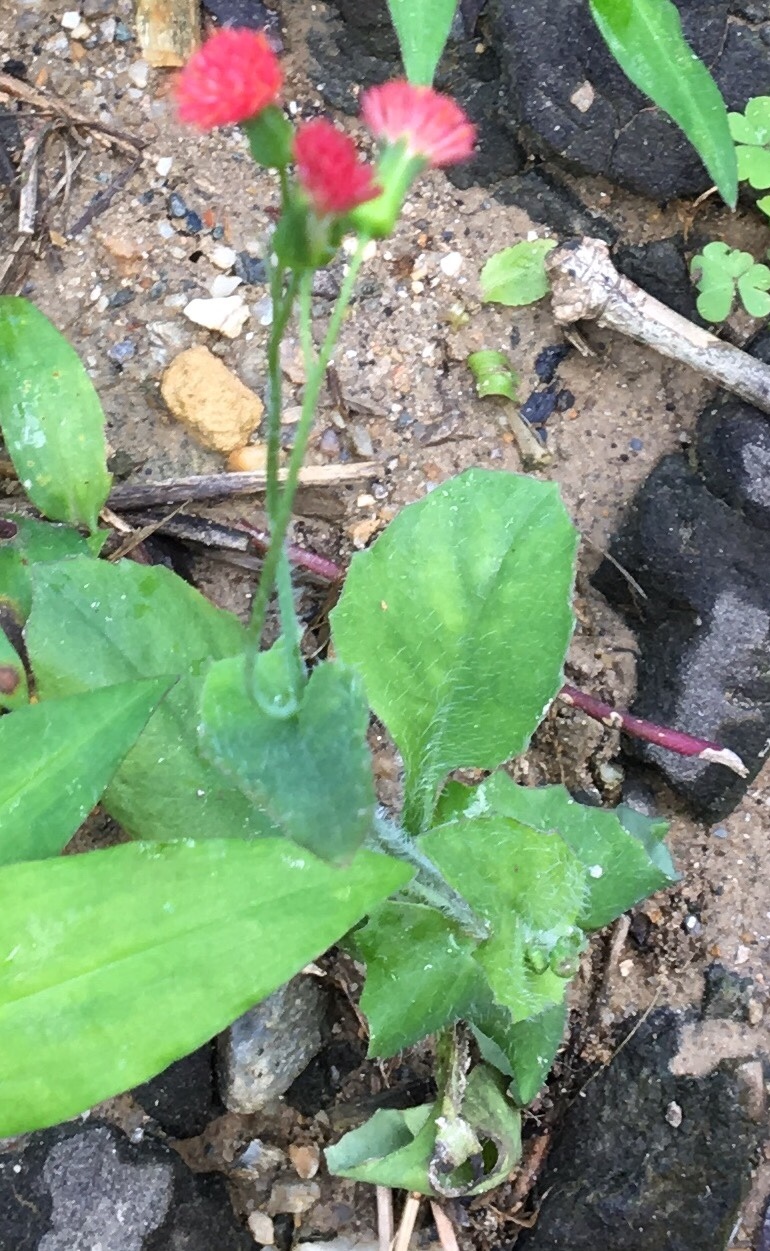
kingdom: Plantae
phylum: Tracheophyta
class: Magnoliopsida
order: Asterales
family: Asteraceae
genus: Emilia
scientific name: Emilia fosbergii
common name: Florida tasselflower
